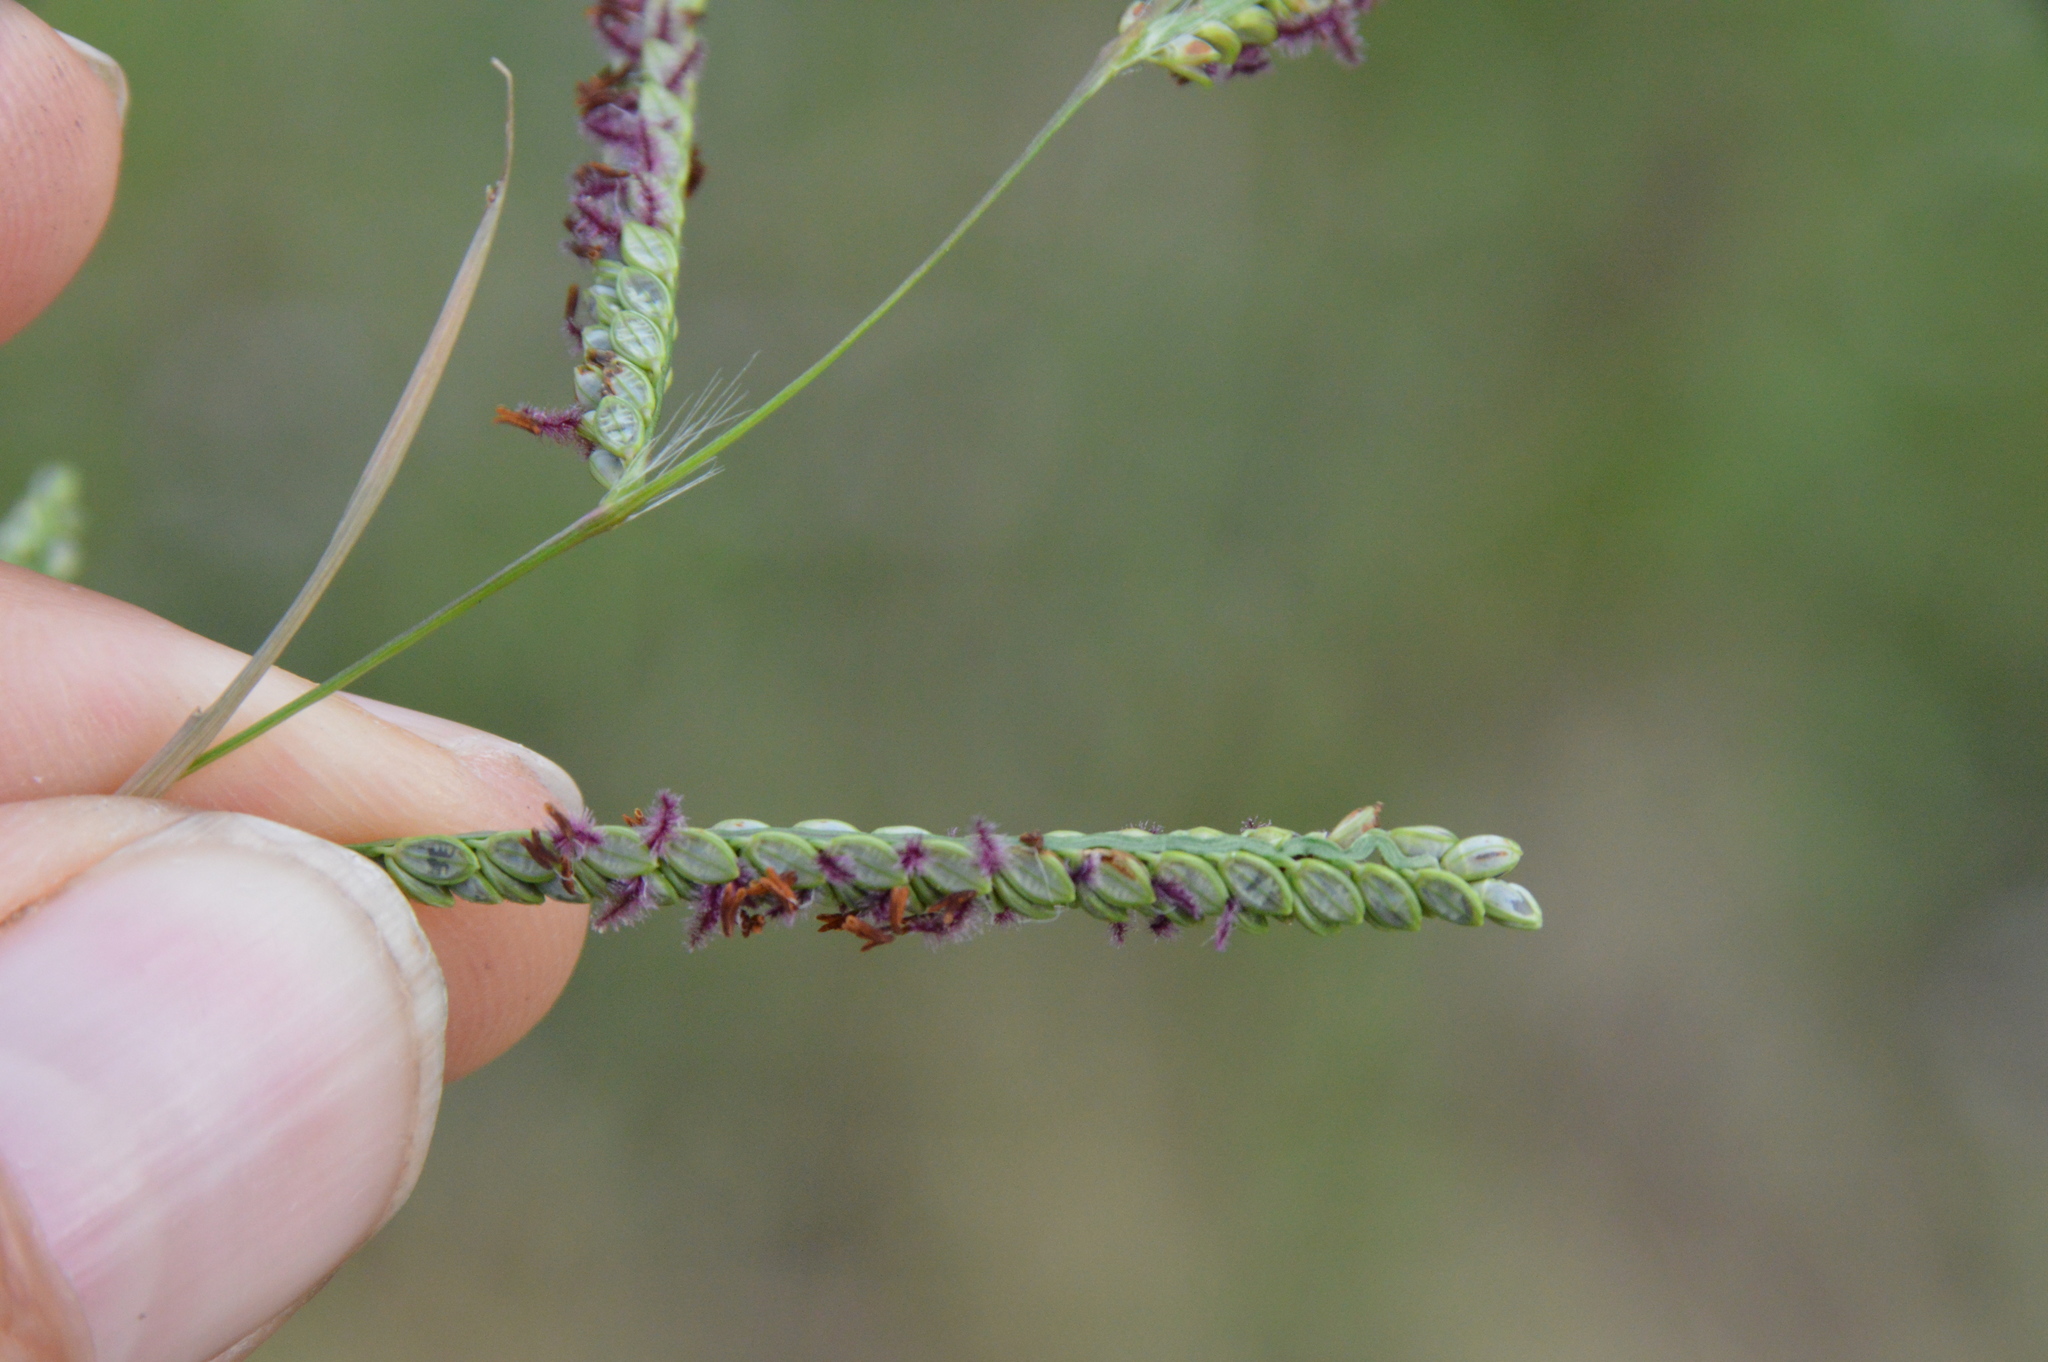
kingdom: Plantae
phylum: Tracheophyta
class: Liliopsida
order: Poales
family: Poaceae
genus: Paspalum
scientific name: Paspalum plicatulum
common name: Top paspalum
